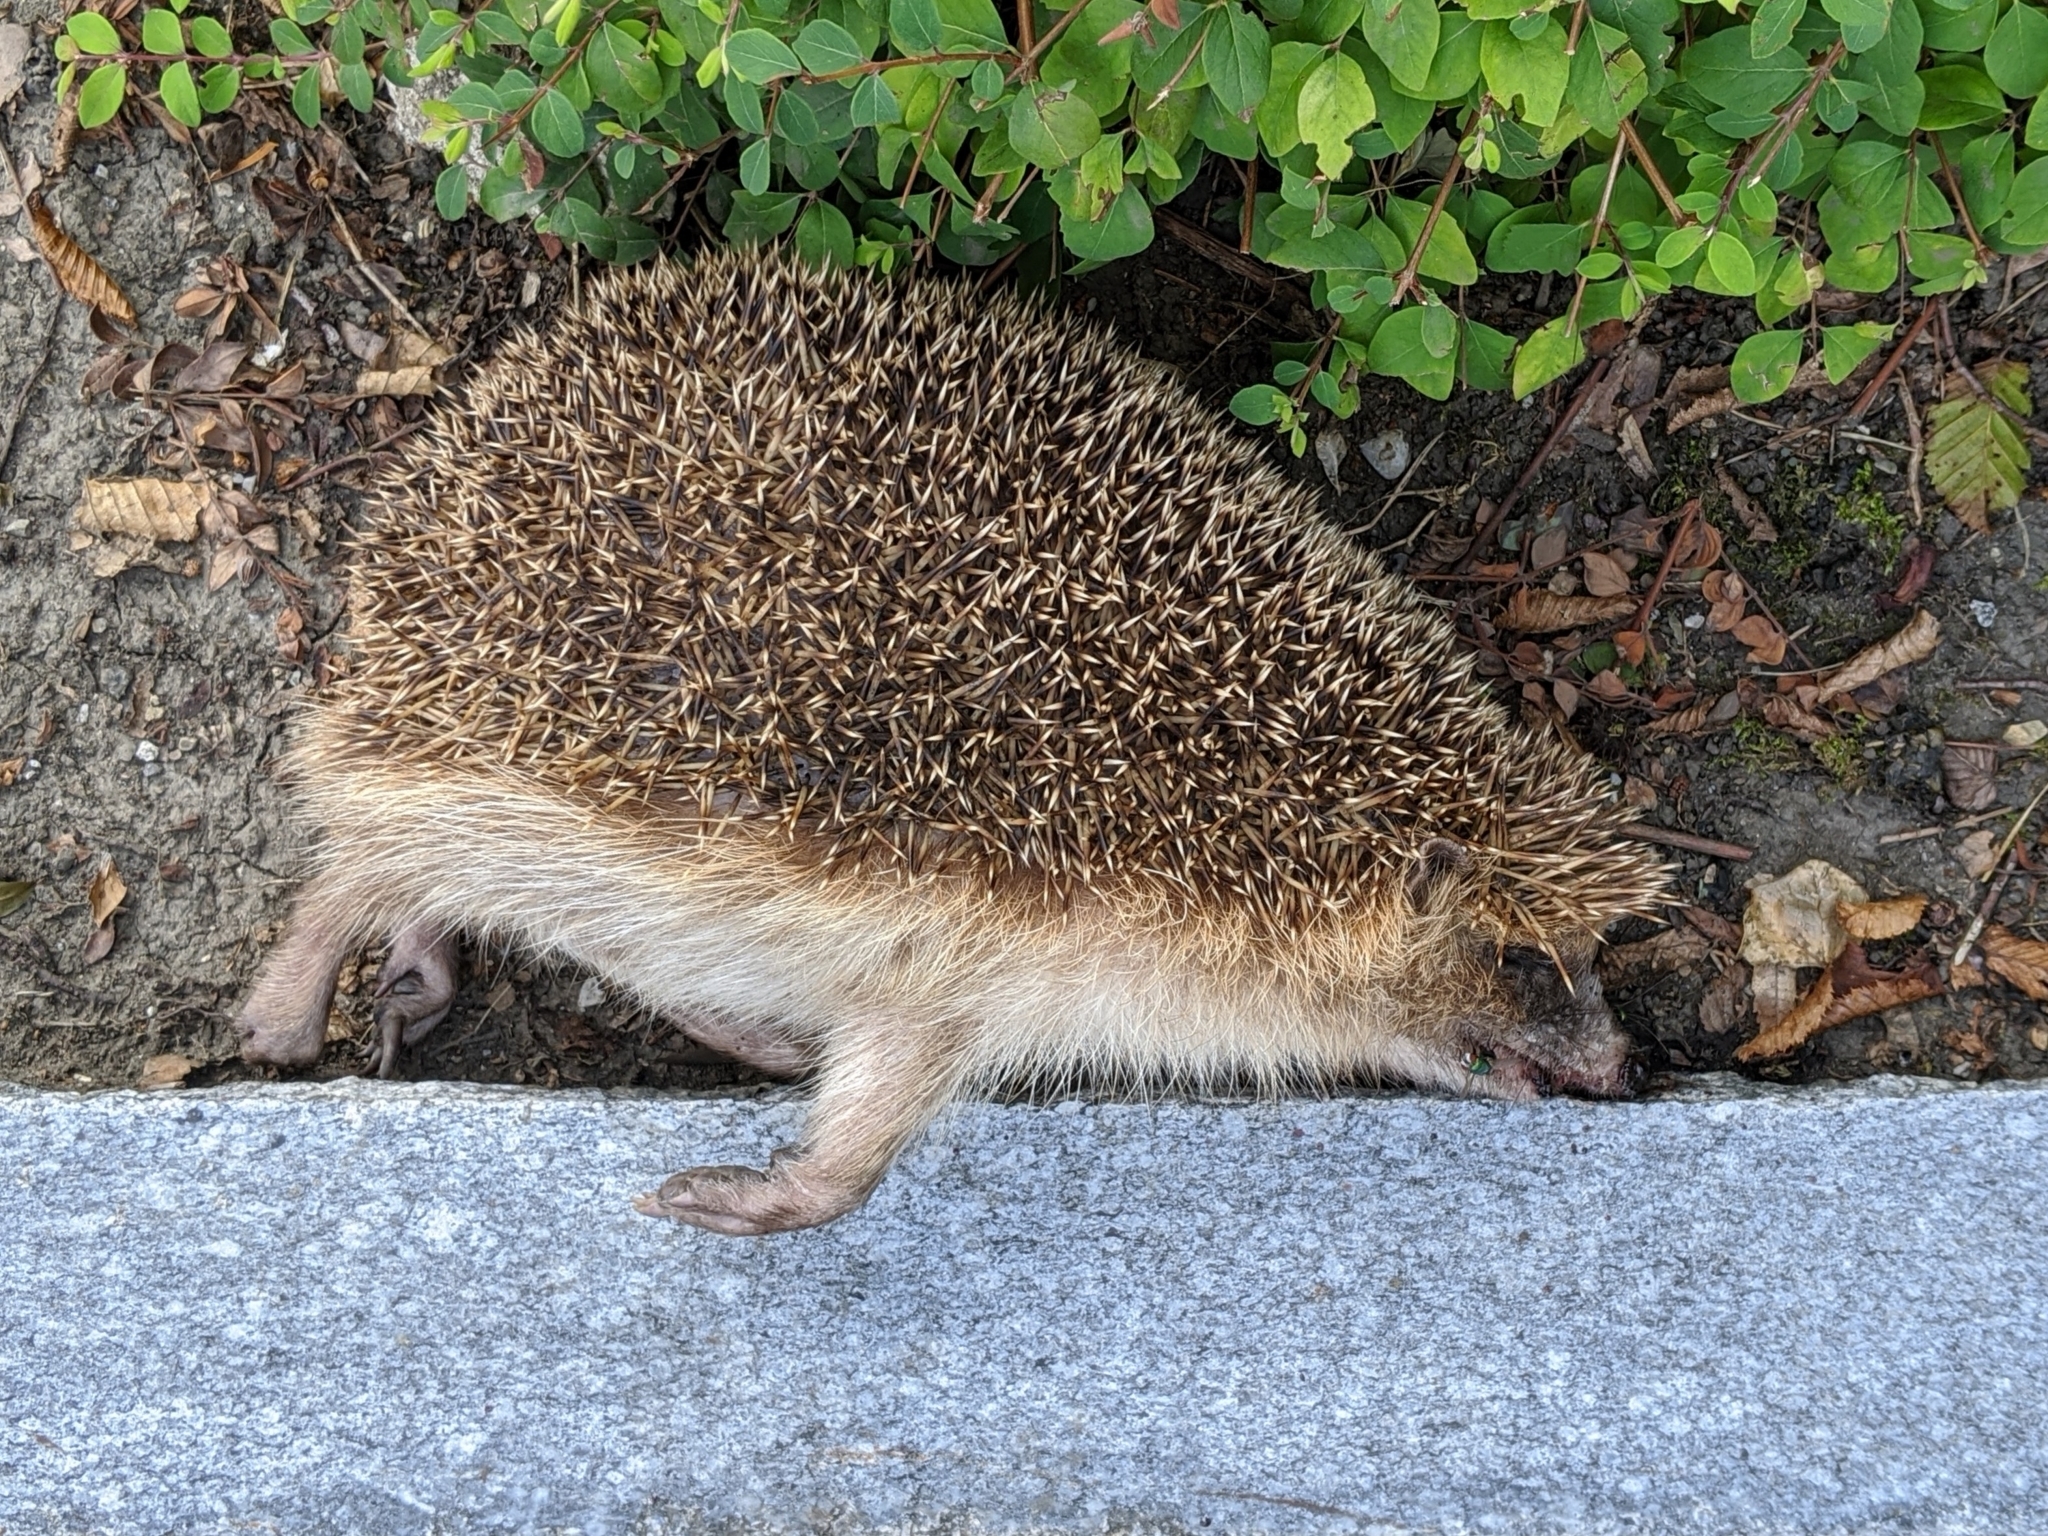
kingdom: Animalia
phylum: Chordata
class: Mammalia
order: Erinaceomorpha
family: Erinaceidae
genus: Erinaceus
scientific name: Erinaceus europaeus
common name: West european hedgehog
